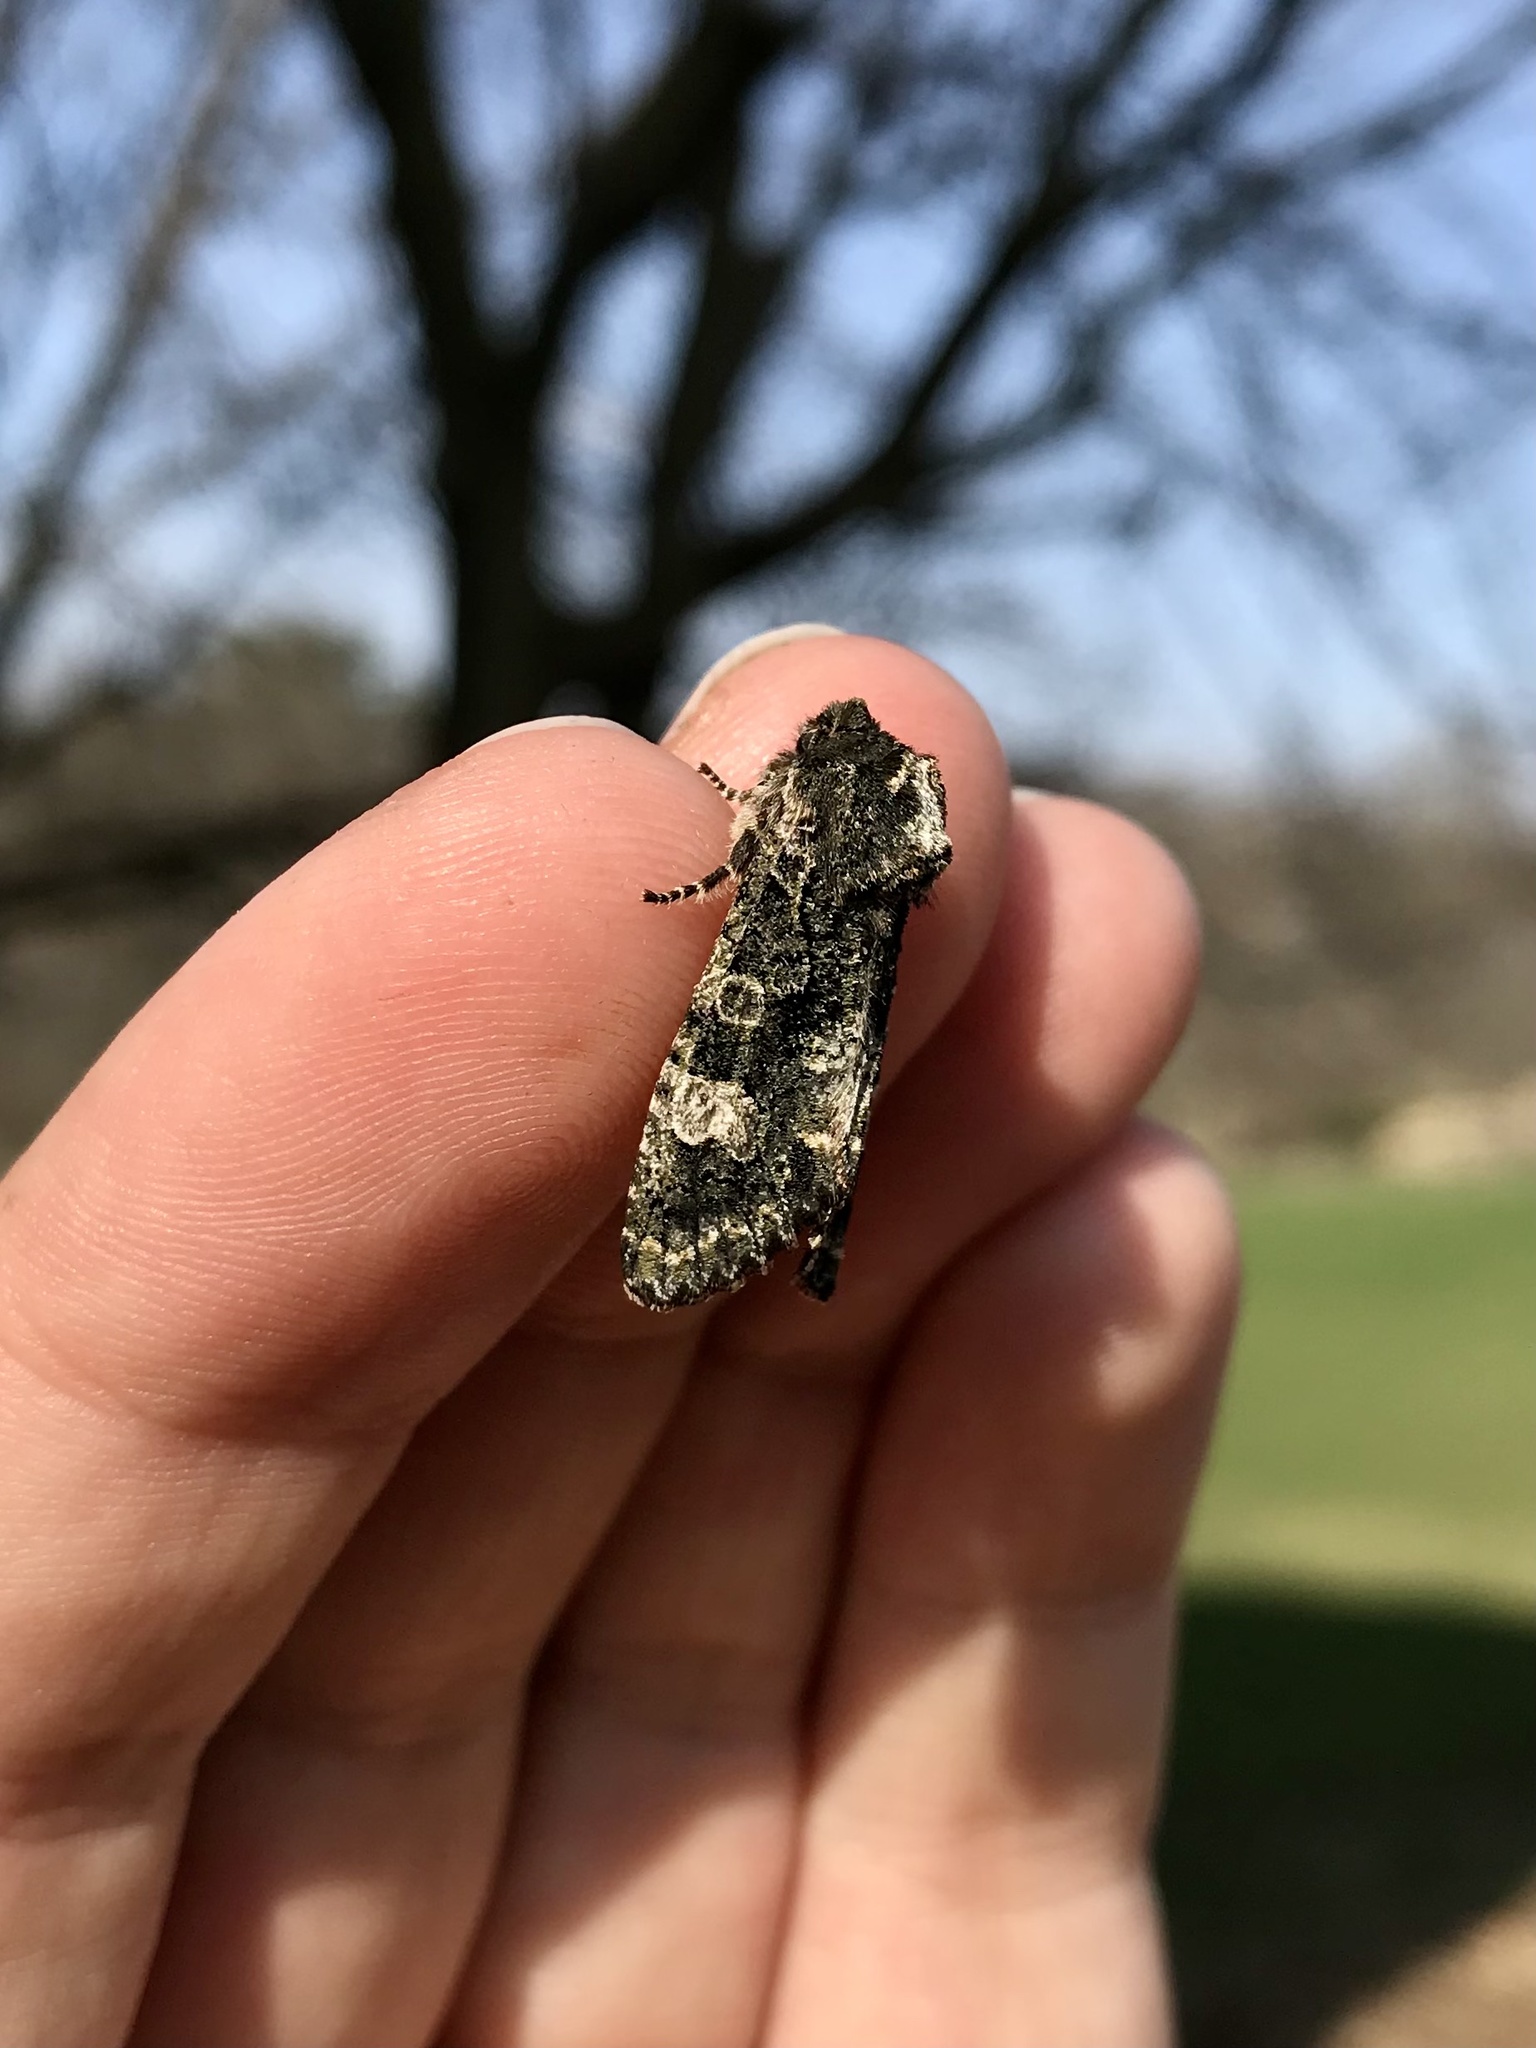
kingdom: Animalia
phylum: Arthropoda
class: Insecta
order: Lepidoptera
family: Noctuidae
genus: Psaphida
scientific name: Psaphida grotei
